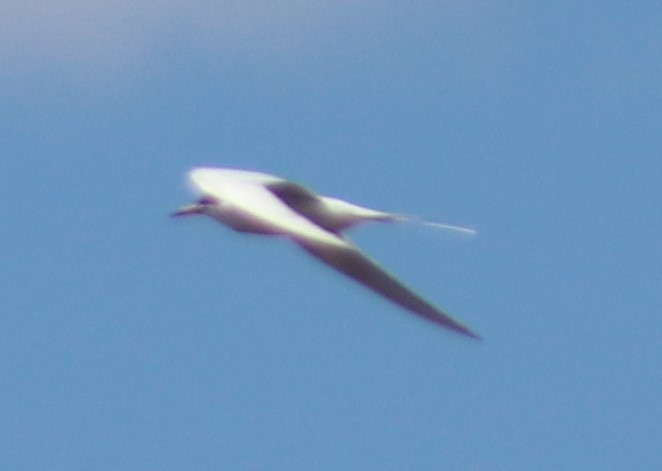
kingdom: Animalia
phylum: Chordata
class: Aves
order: Charadriiformes
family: Laridae
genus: Sterna
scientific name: Sterna forsteri
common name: Forster's tern
